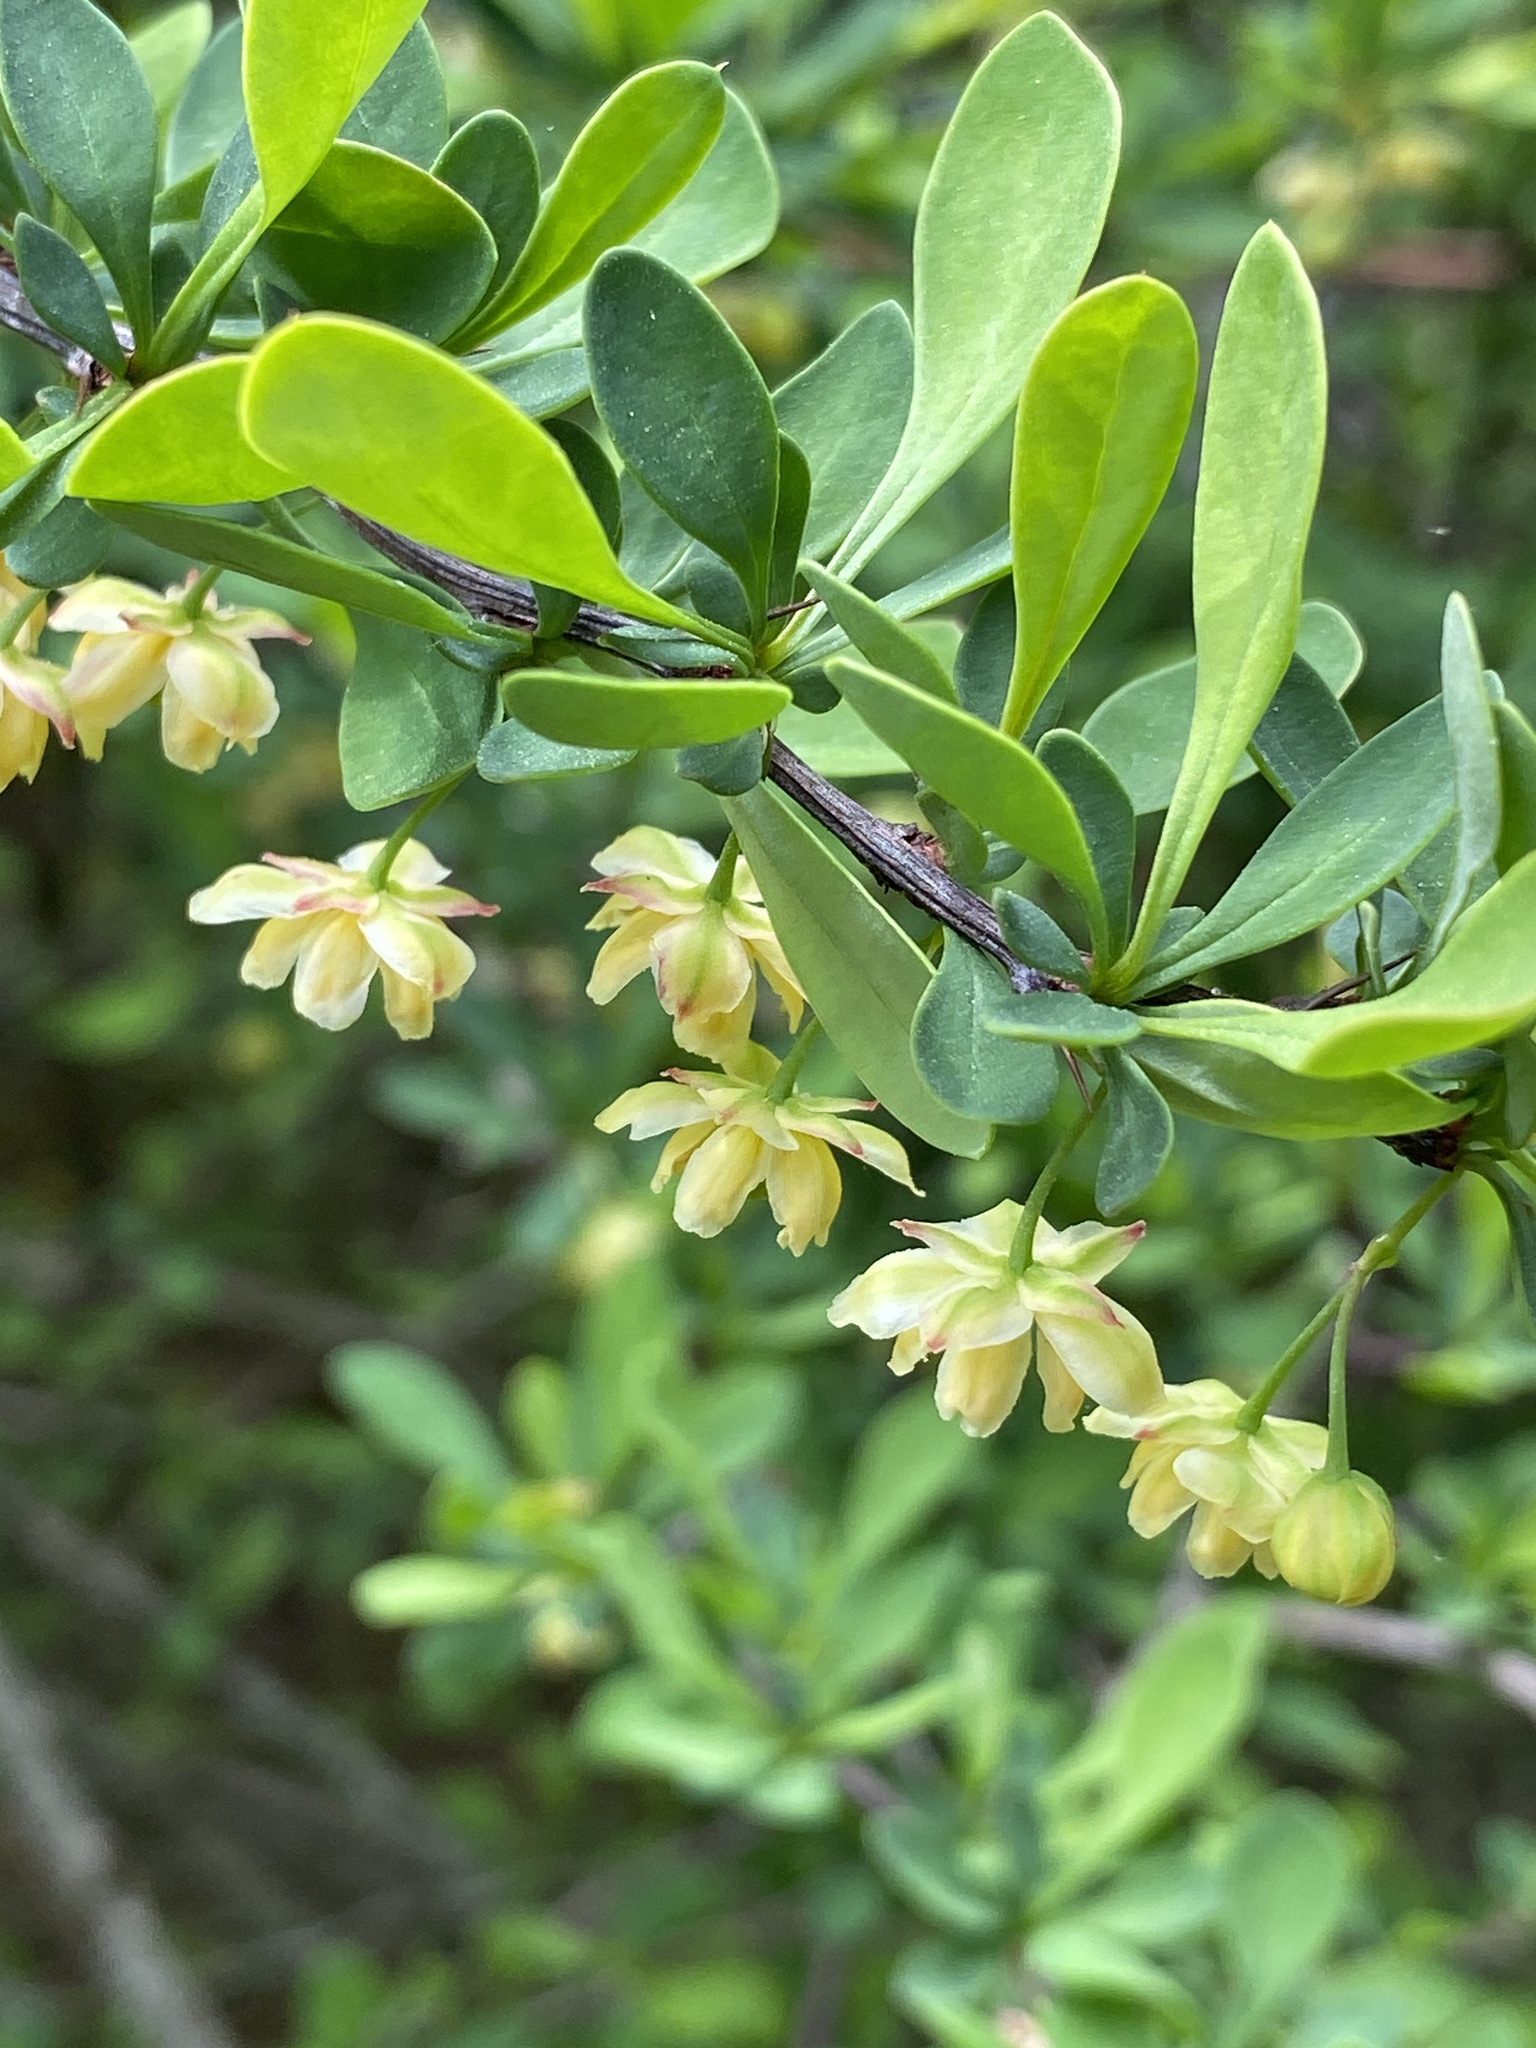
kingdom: Plantae
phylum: Tracheophyta
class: Magnoliopsida
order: Ranunculales
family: Berberidaceae
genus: Berberis
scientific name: Berberis thunbergii
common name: Japanese barberry
